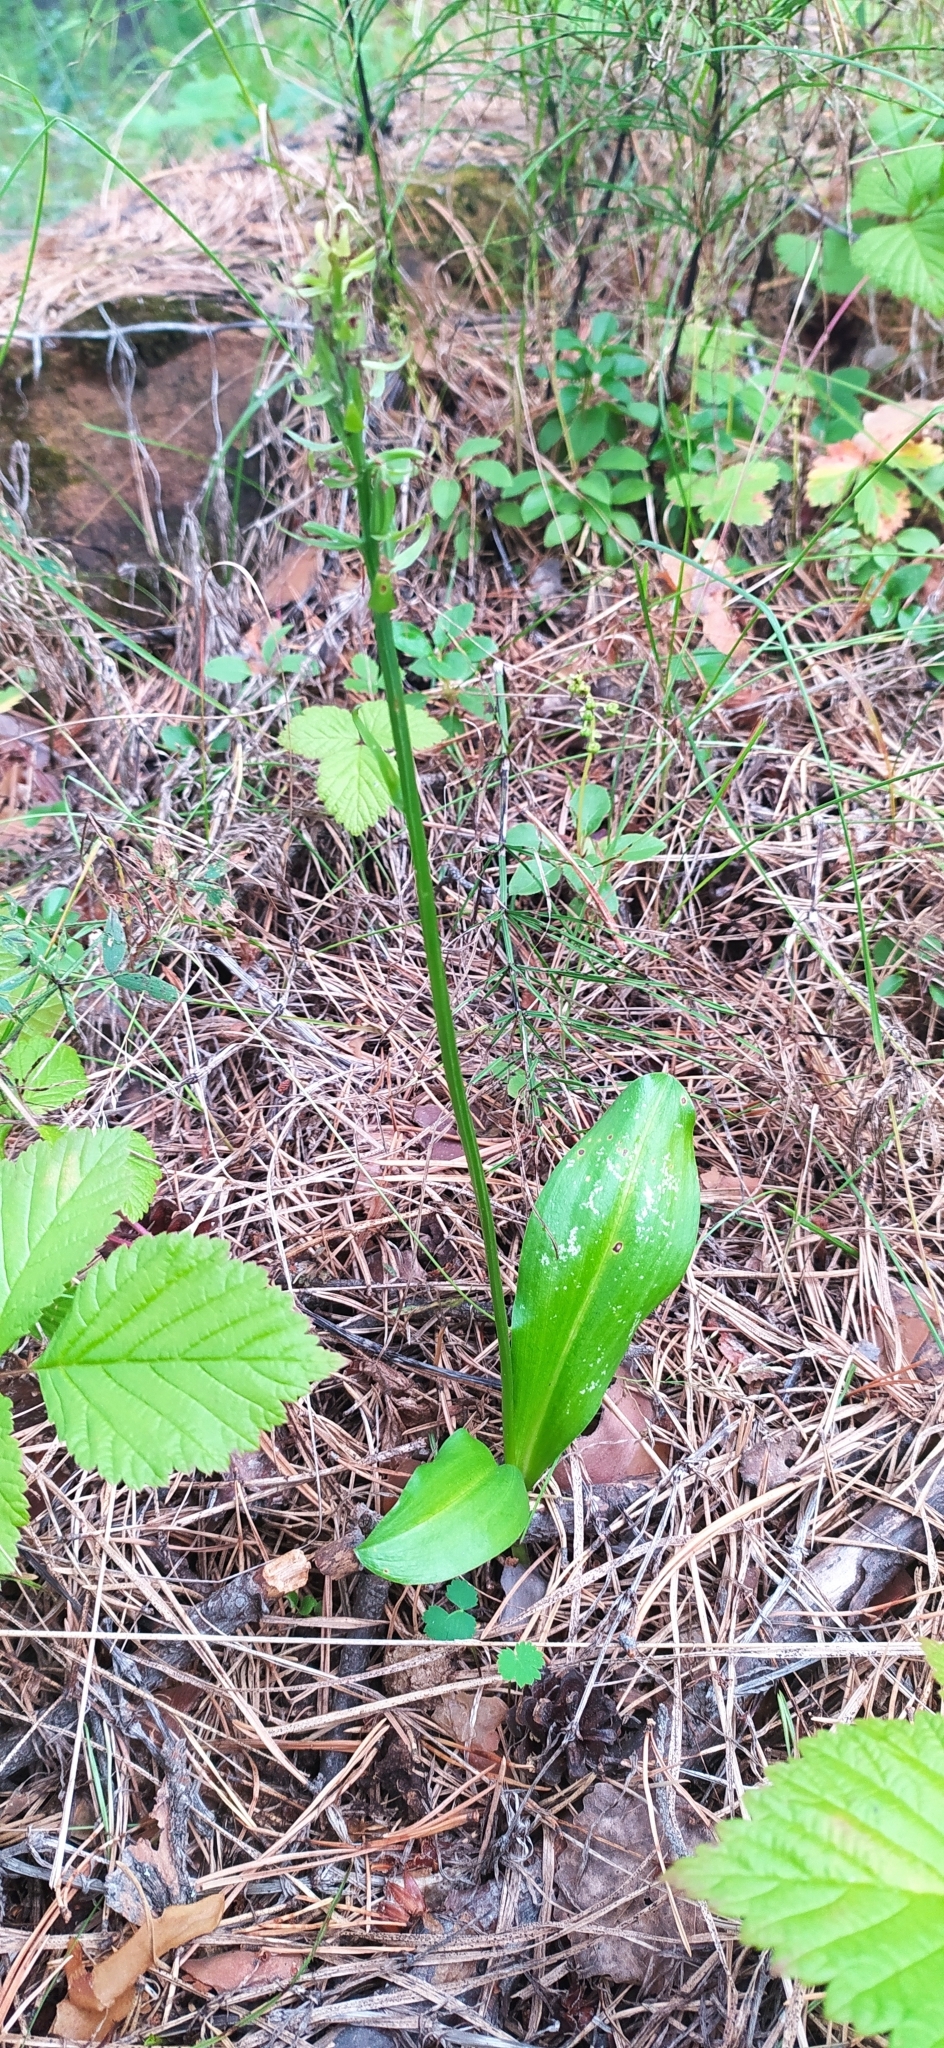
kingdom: Plantae
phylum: Tracheophyta
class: Liliopsida
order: Asparagales
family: Orchidaceae
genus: Platanthera
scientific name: Platanthera bifolia
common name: Lesser butterfly-orchid
